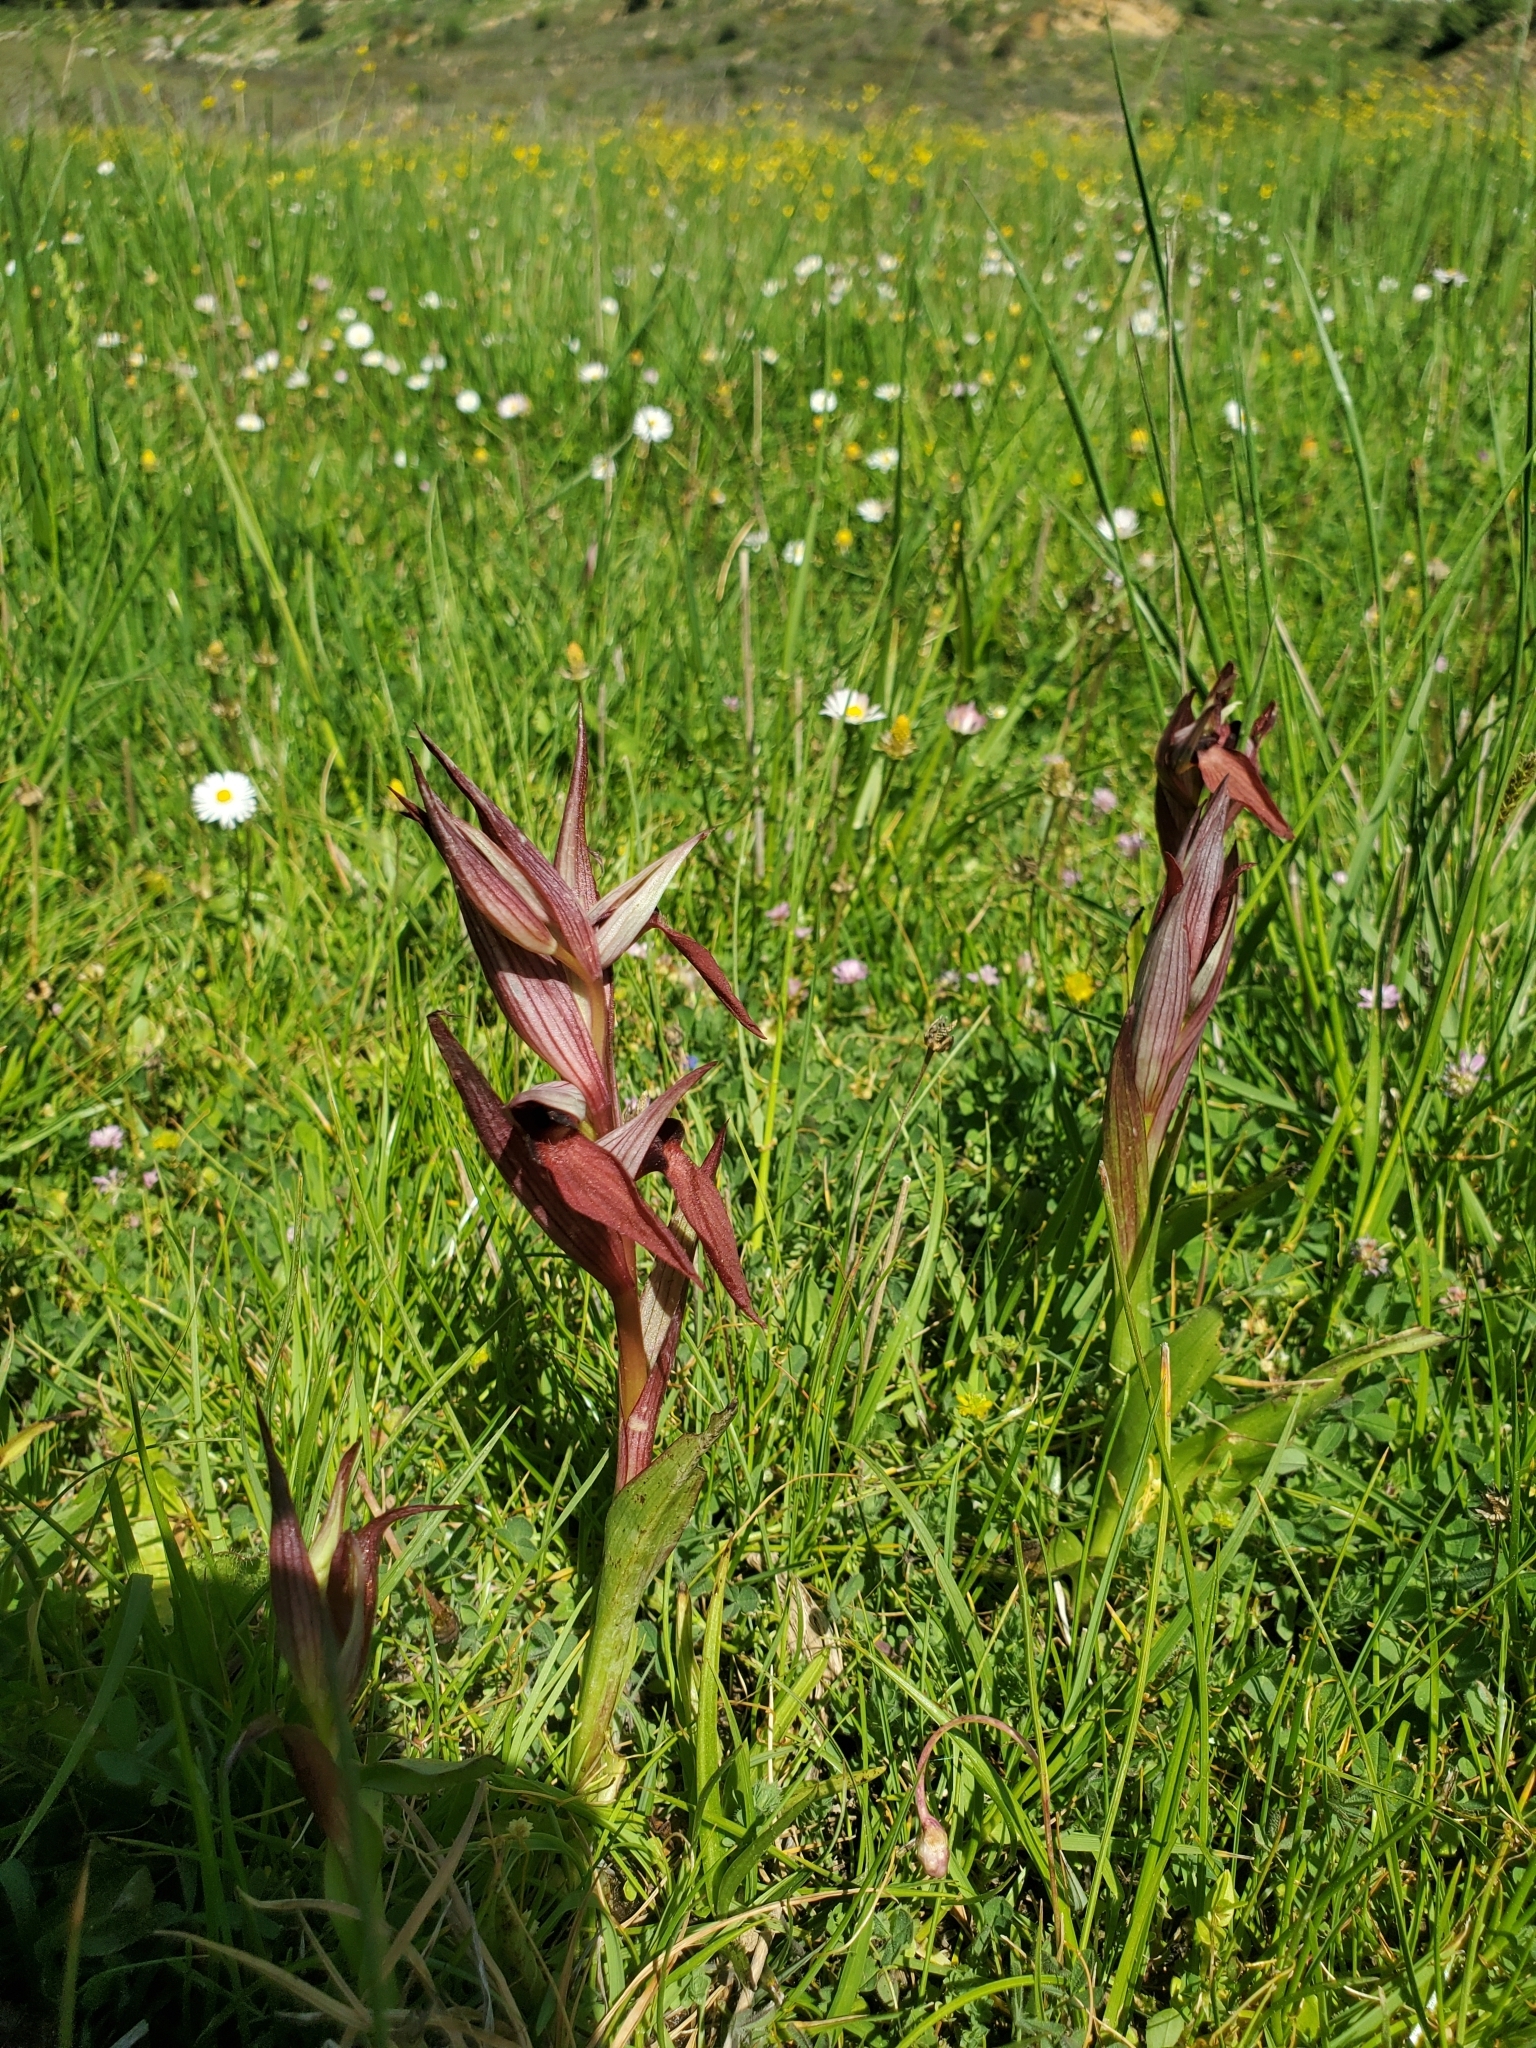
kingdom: Plantae
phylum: Tracheophyta
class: Liliopsida
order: Asparagales
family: Orchidaceae
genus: Serapias
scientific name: Serapias orientalis
